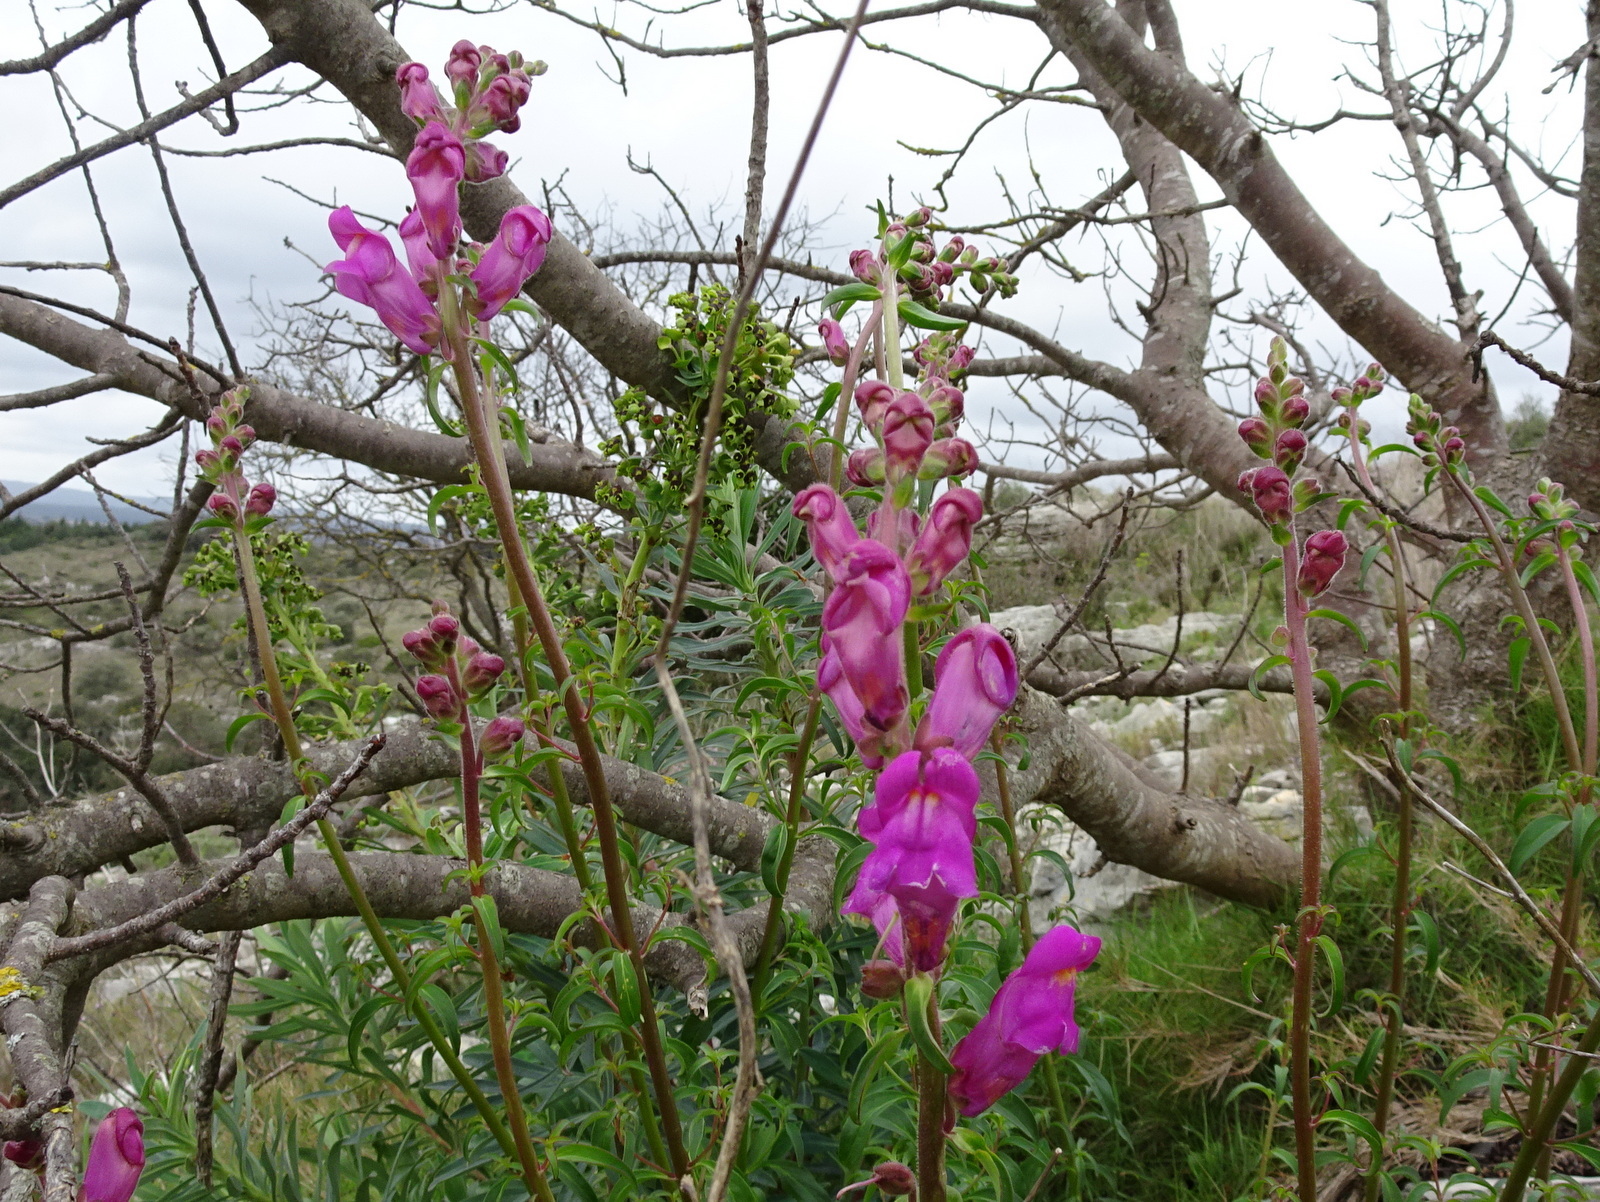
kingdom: Plantae
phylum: Tracheophyta
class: Magnoliopsida
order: Lamiales
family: Plantaginaceae
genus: Antirrhinum
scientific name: Antirrhinum majus
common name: Snapdragon
